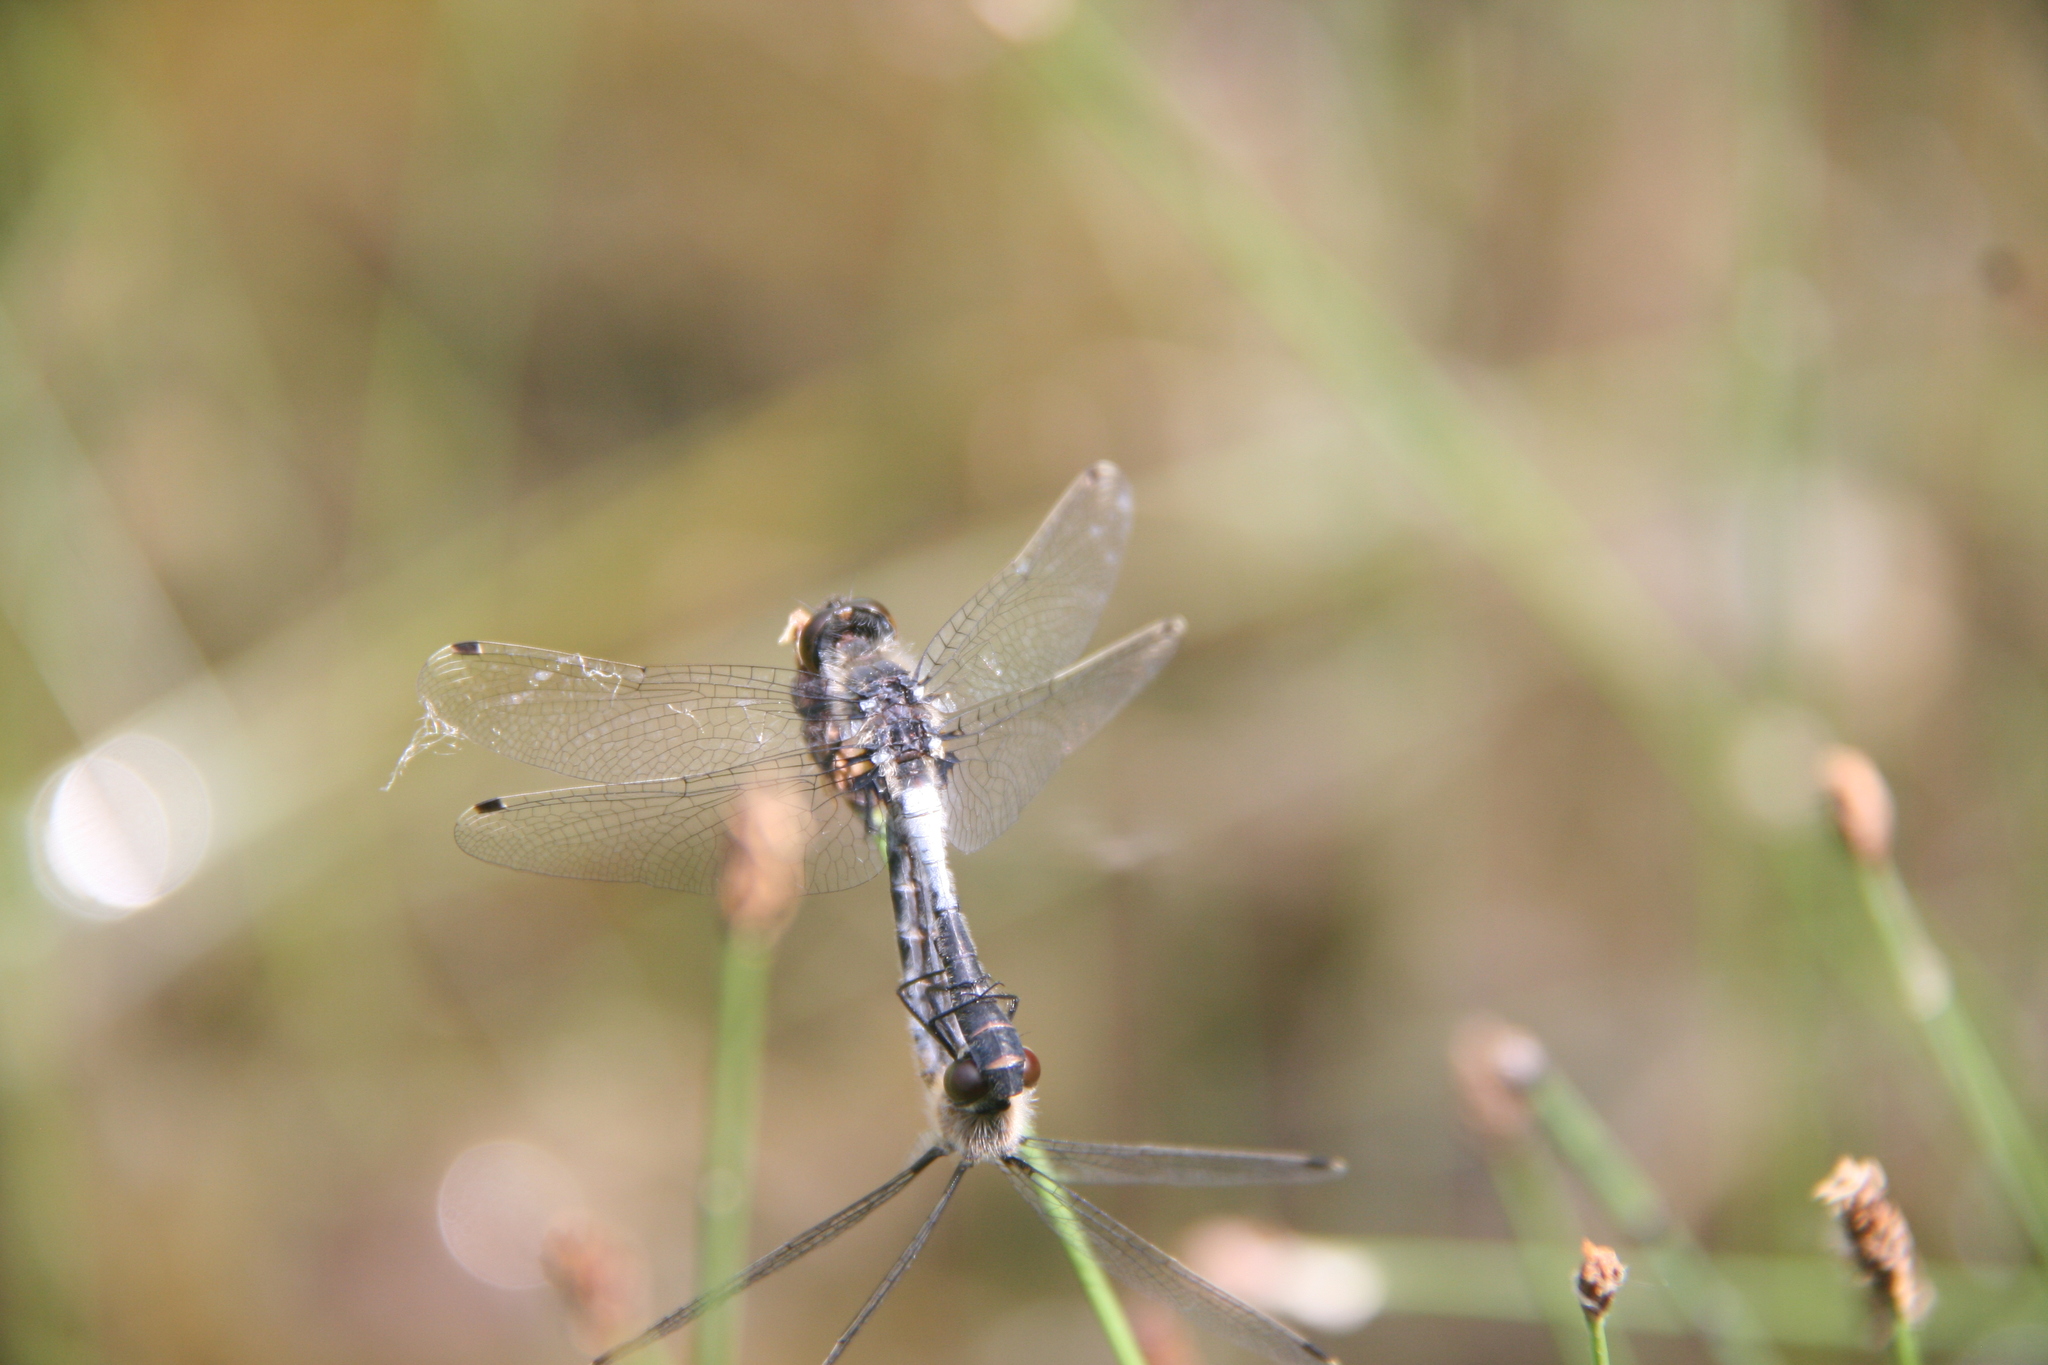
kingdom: Animalia
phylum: Arthropoda
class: Insecta
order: Odonata
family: Libellulidae
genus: Leucorrhinia
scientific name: Leucorrhinia frigida
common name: Frosted whiteface
